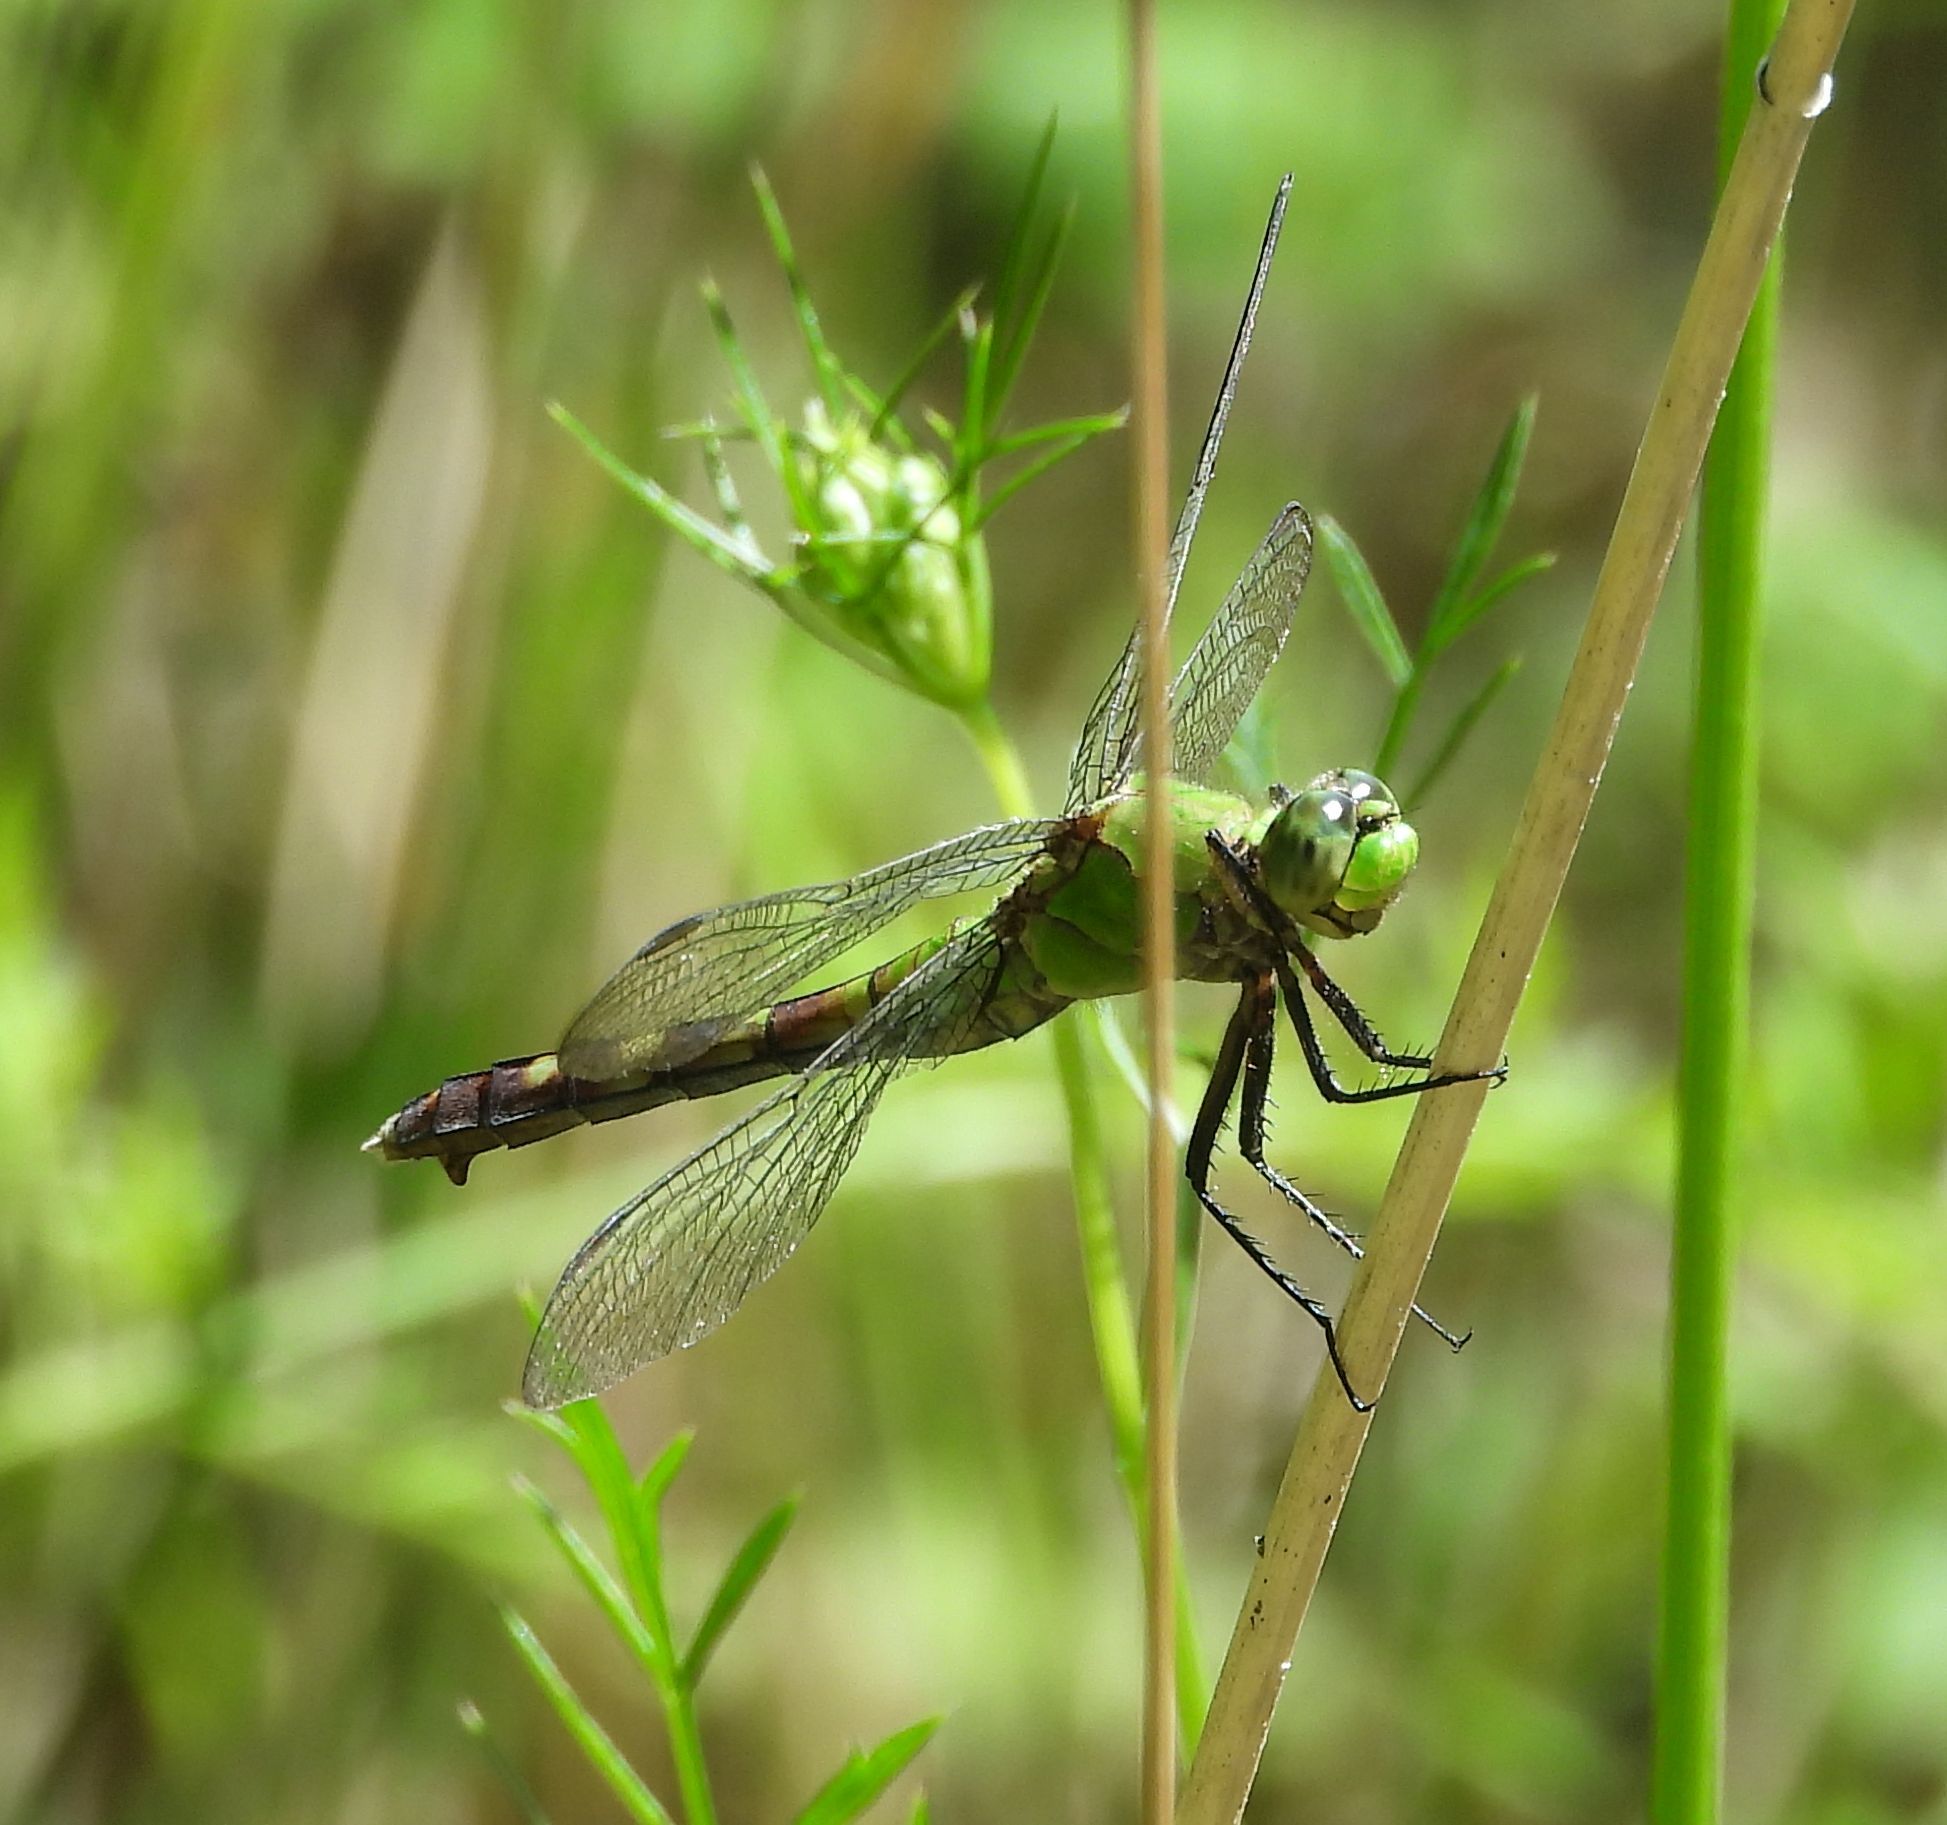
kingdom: Animalia
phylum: Arthropoda
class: Insecta
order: Odonata
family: Libellulidae
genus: Erythemis
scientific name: Erythemis simplicicollis
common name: Eastern pondhawk
